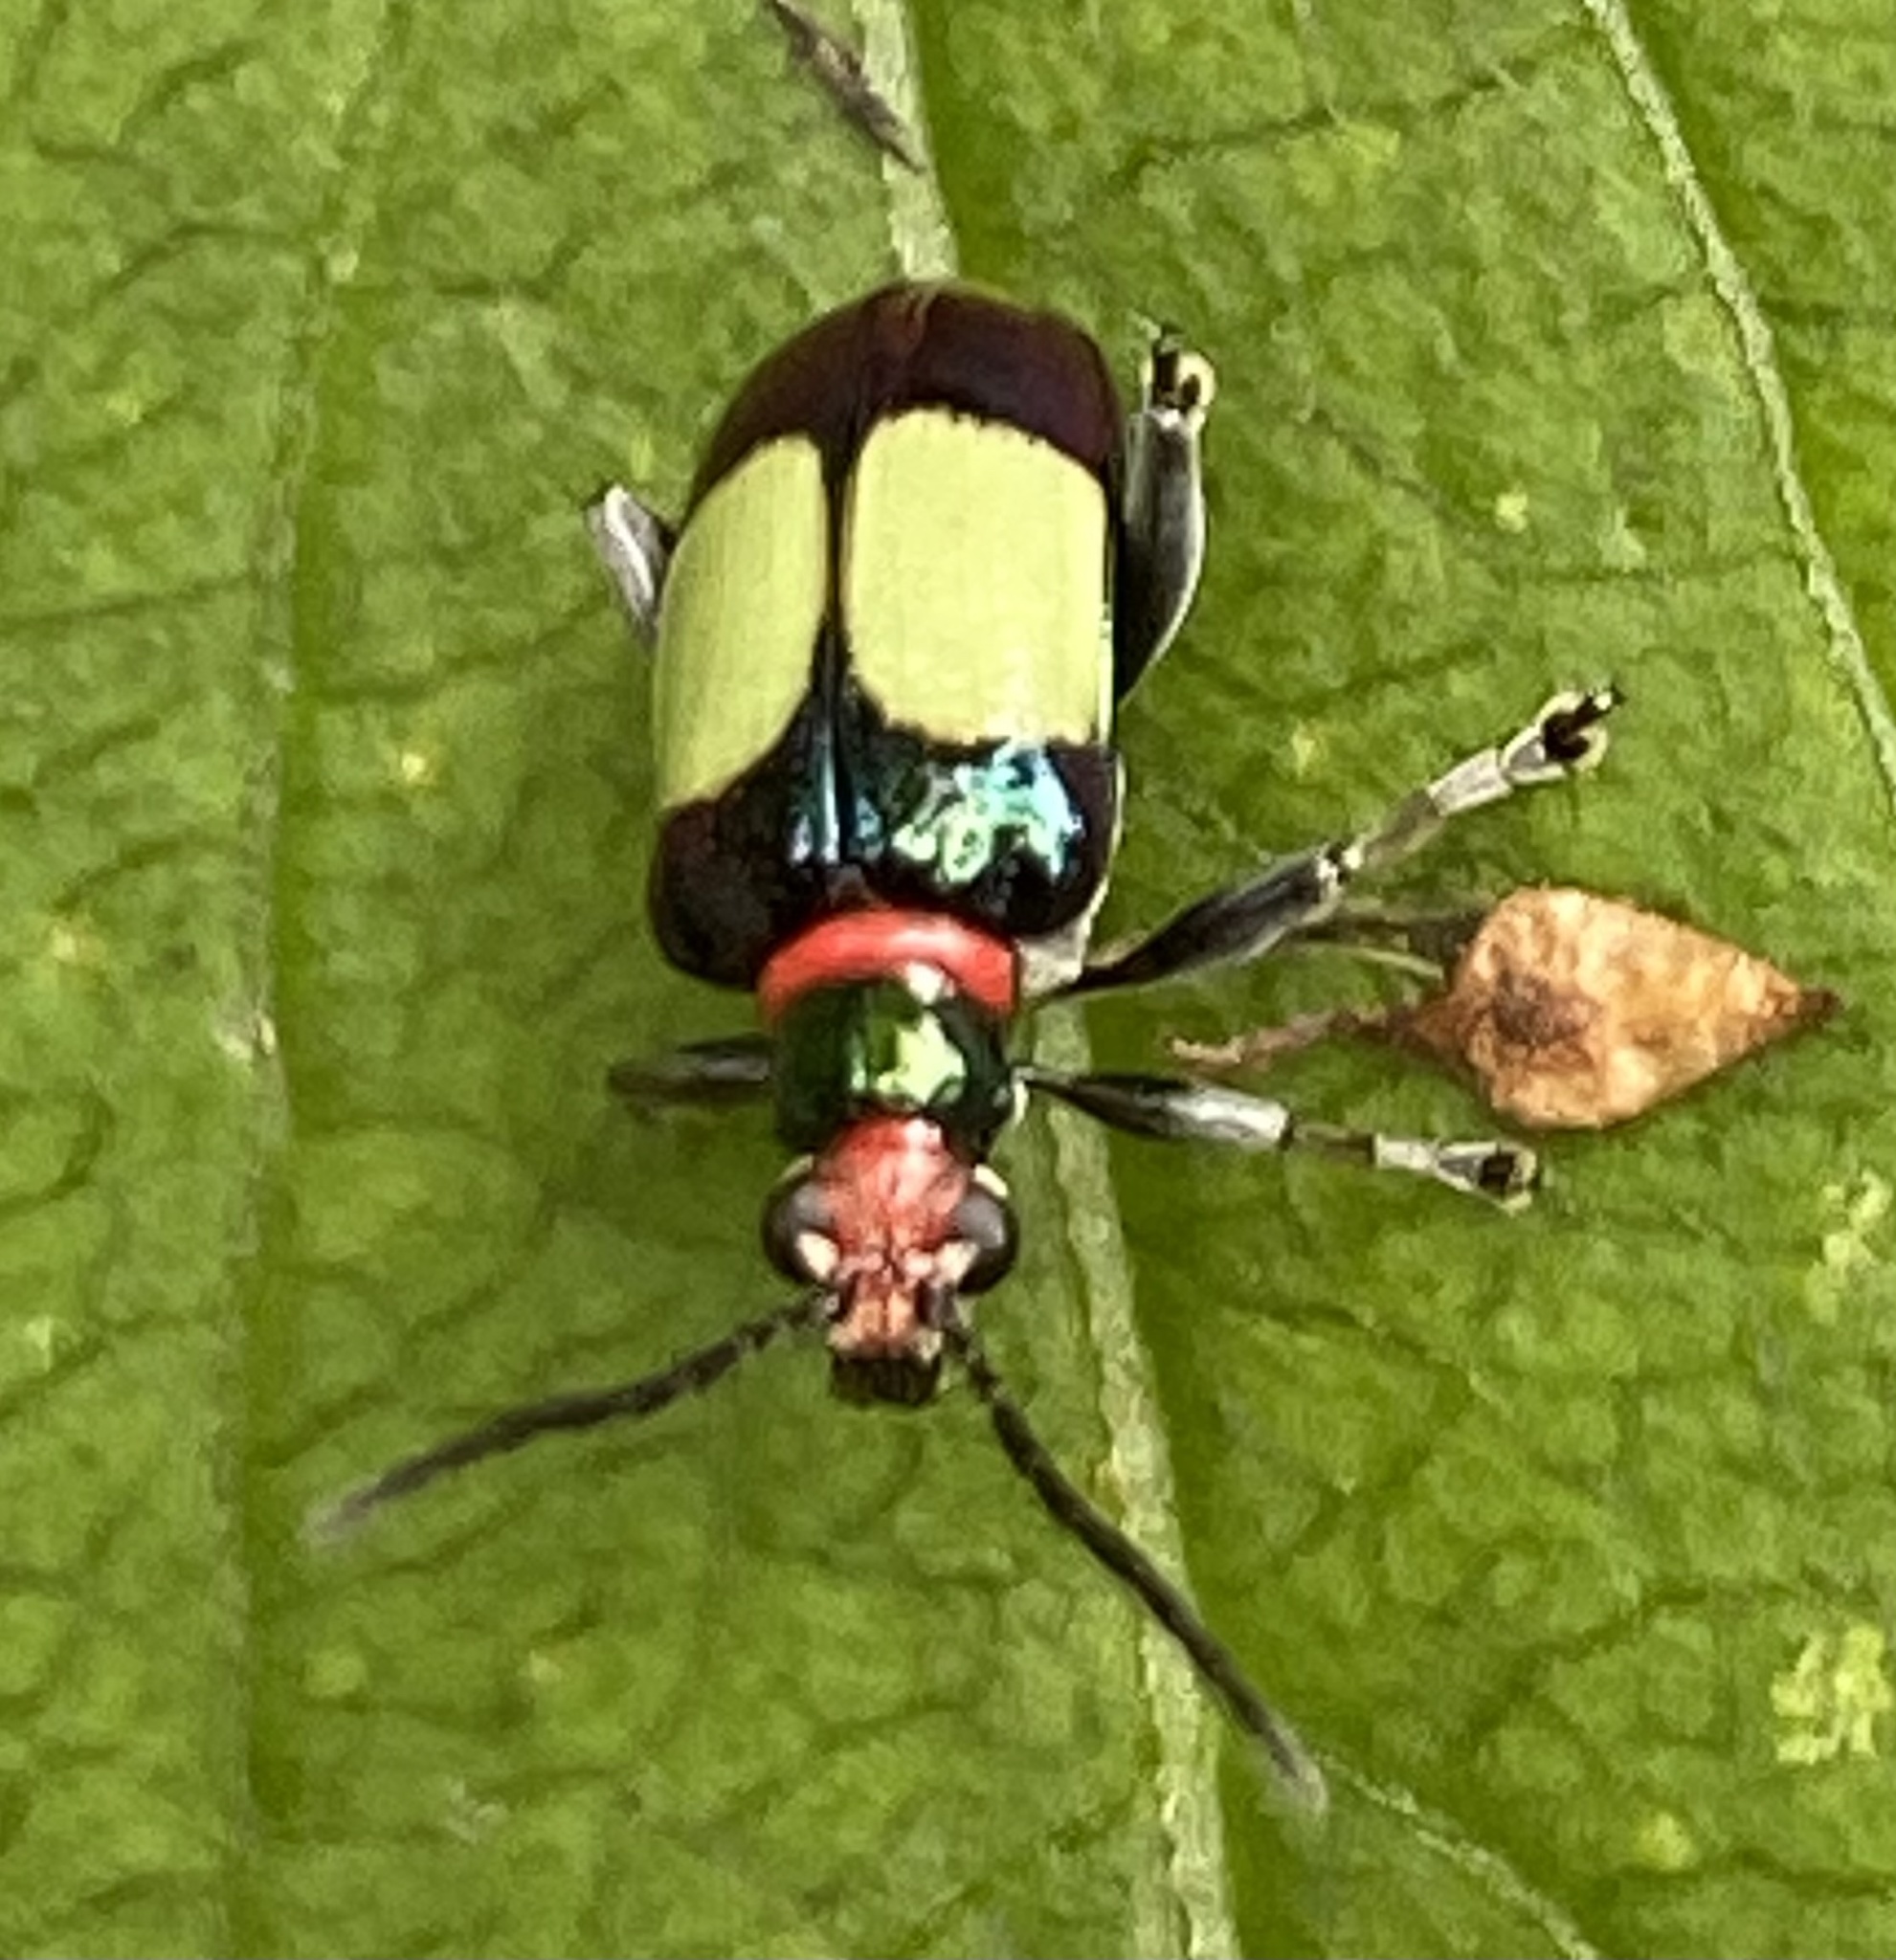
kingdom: Animalia
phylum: Arthropoda
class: Insecta
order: Coleoptera
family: Chrysomelidae
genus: Neolema
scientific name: Neolema
